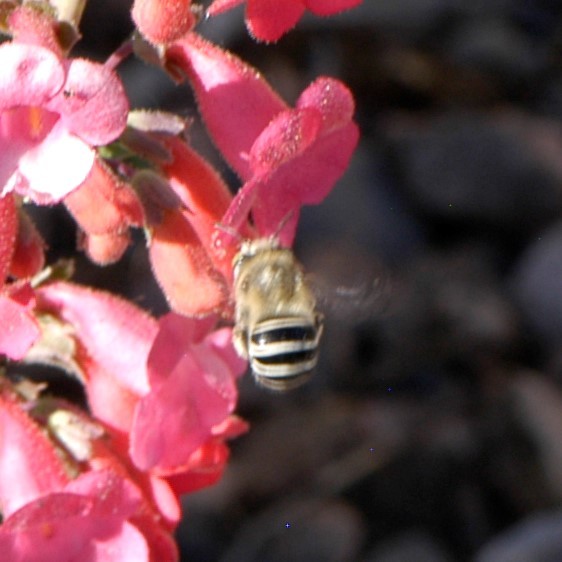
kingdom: Animalia
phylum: Arthropoda
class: Insecta
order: Hymenoptera
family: Apidae
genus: Anthophora
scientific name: Anthophora californica
